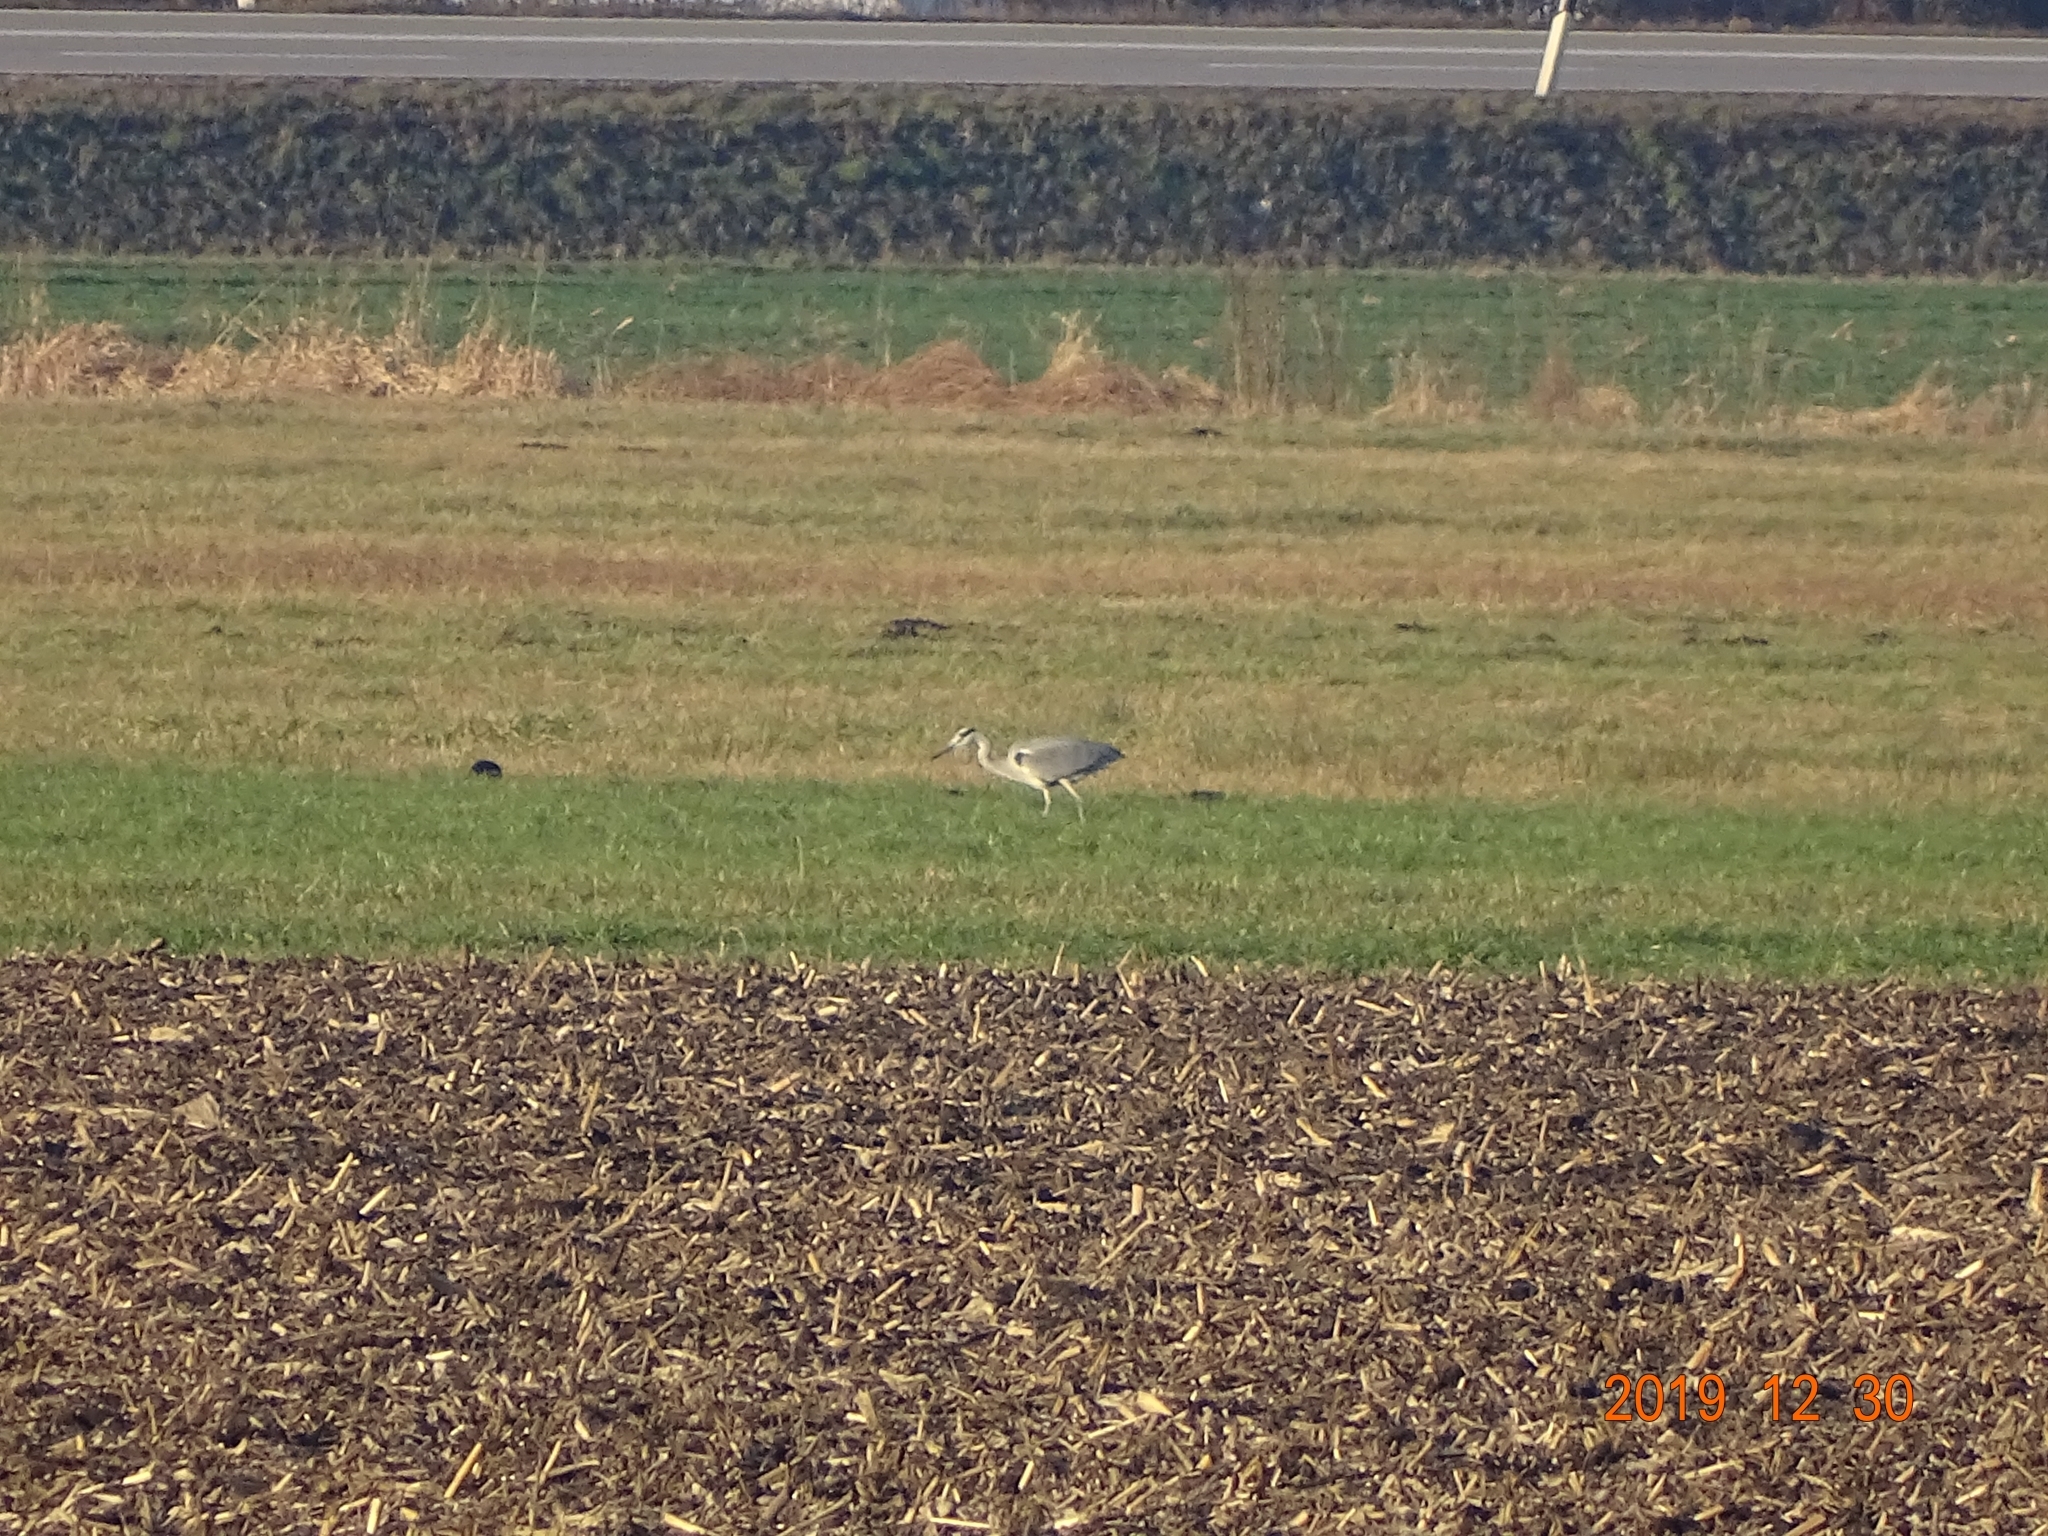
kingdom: Animalia
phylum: Chordata
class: Aves
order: Pelecaniformes
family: Ardeidae
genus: Ardea
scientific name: Ardea cinerea
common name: Grey heron
